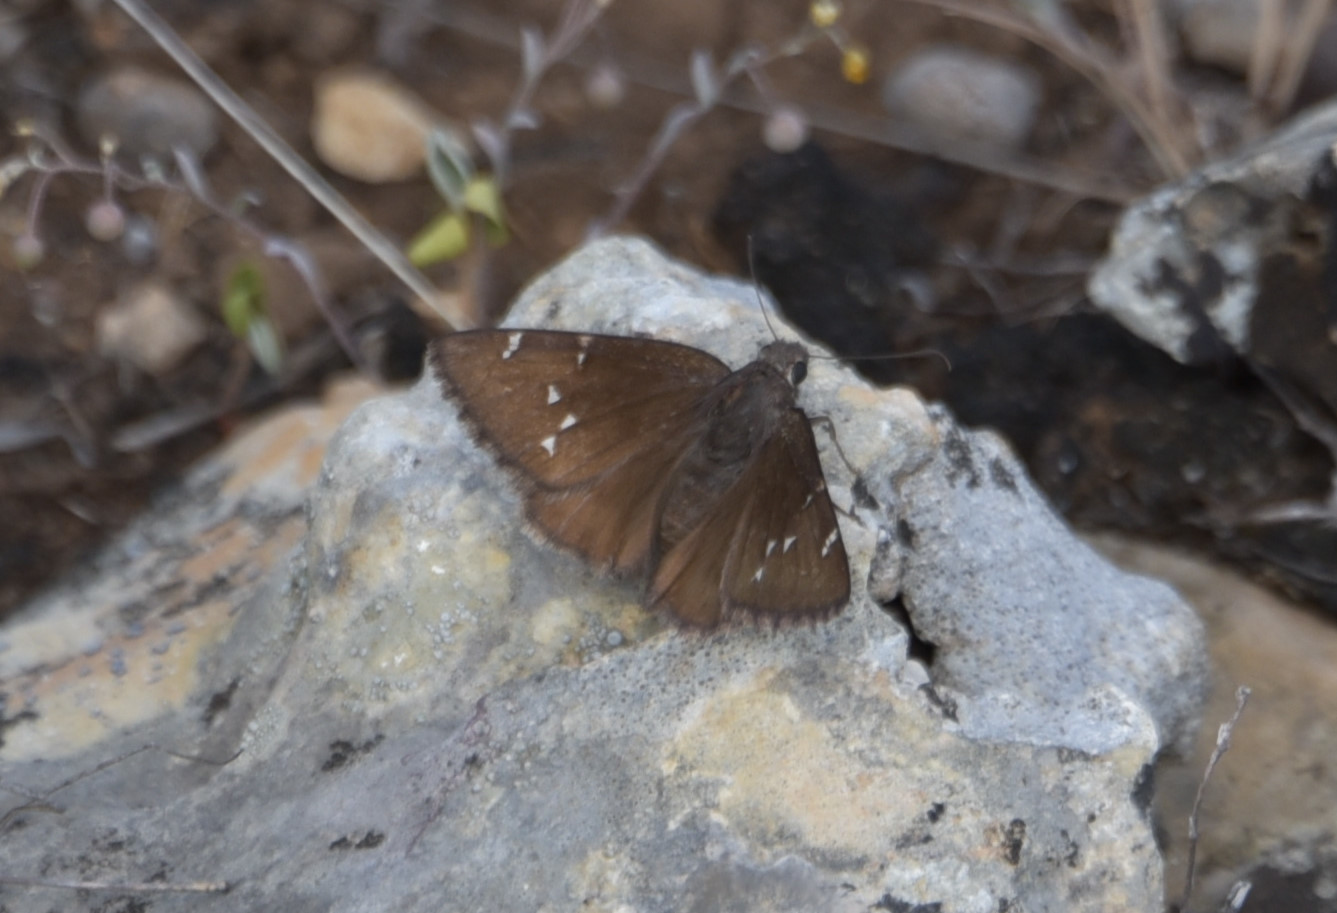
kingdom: Animalia
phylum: Arthropoda
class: Insecta
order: Lepidoptera
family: Hesperiidae
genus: Thorybes
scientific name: Thorybes pylades
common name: Northern cloudywing
